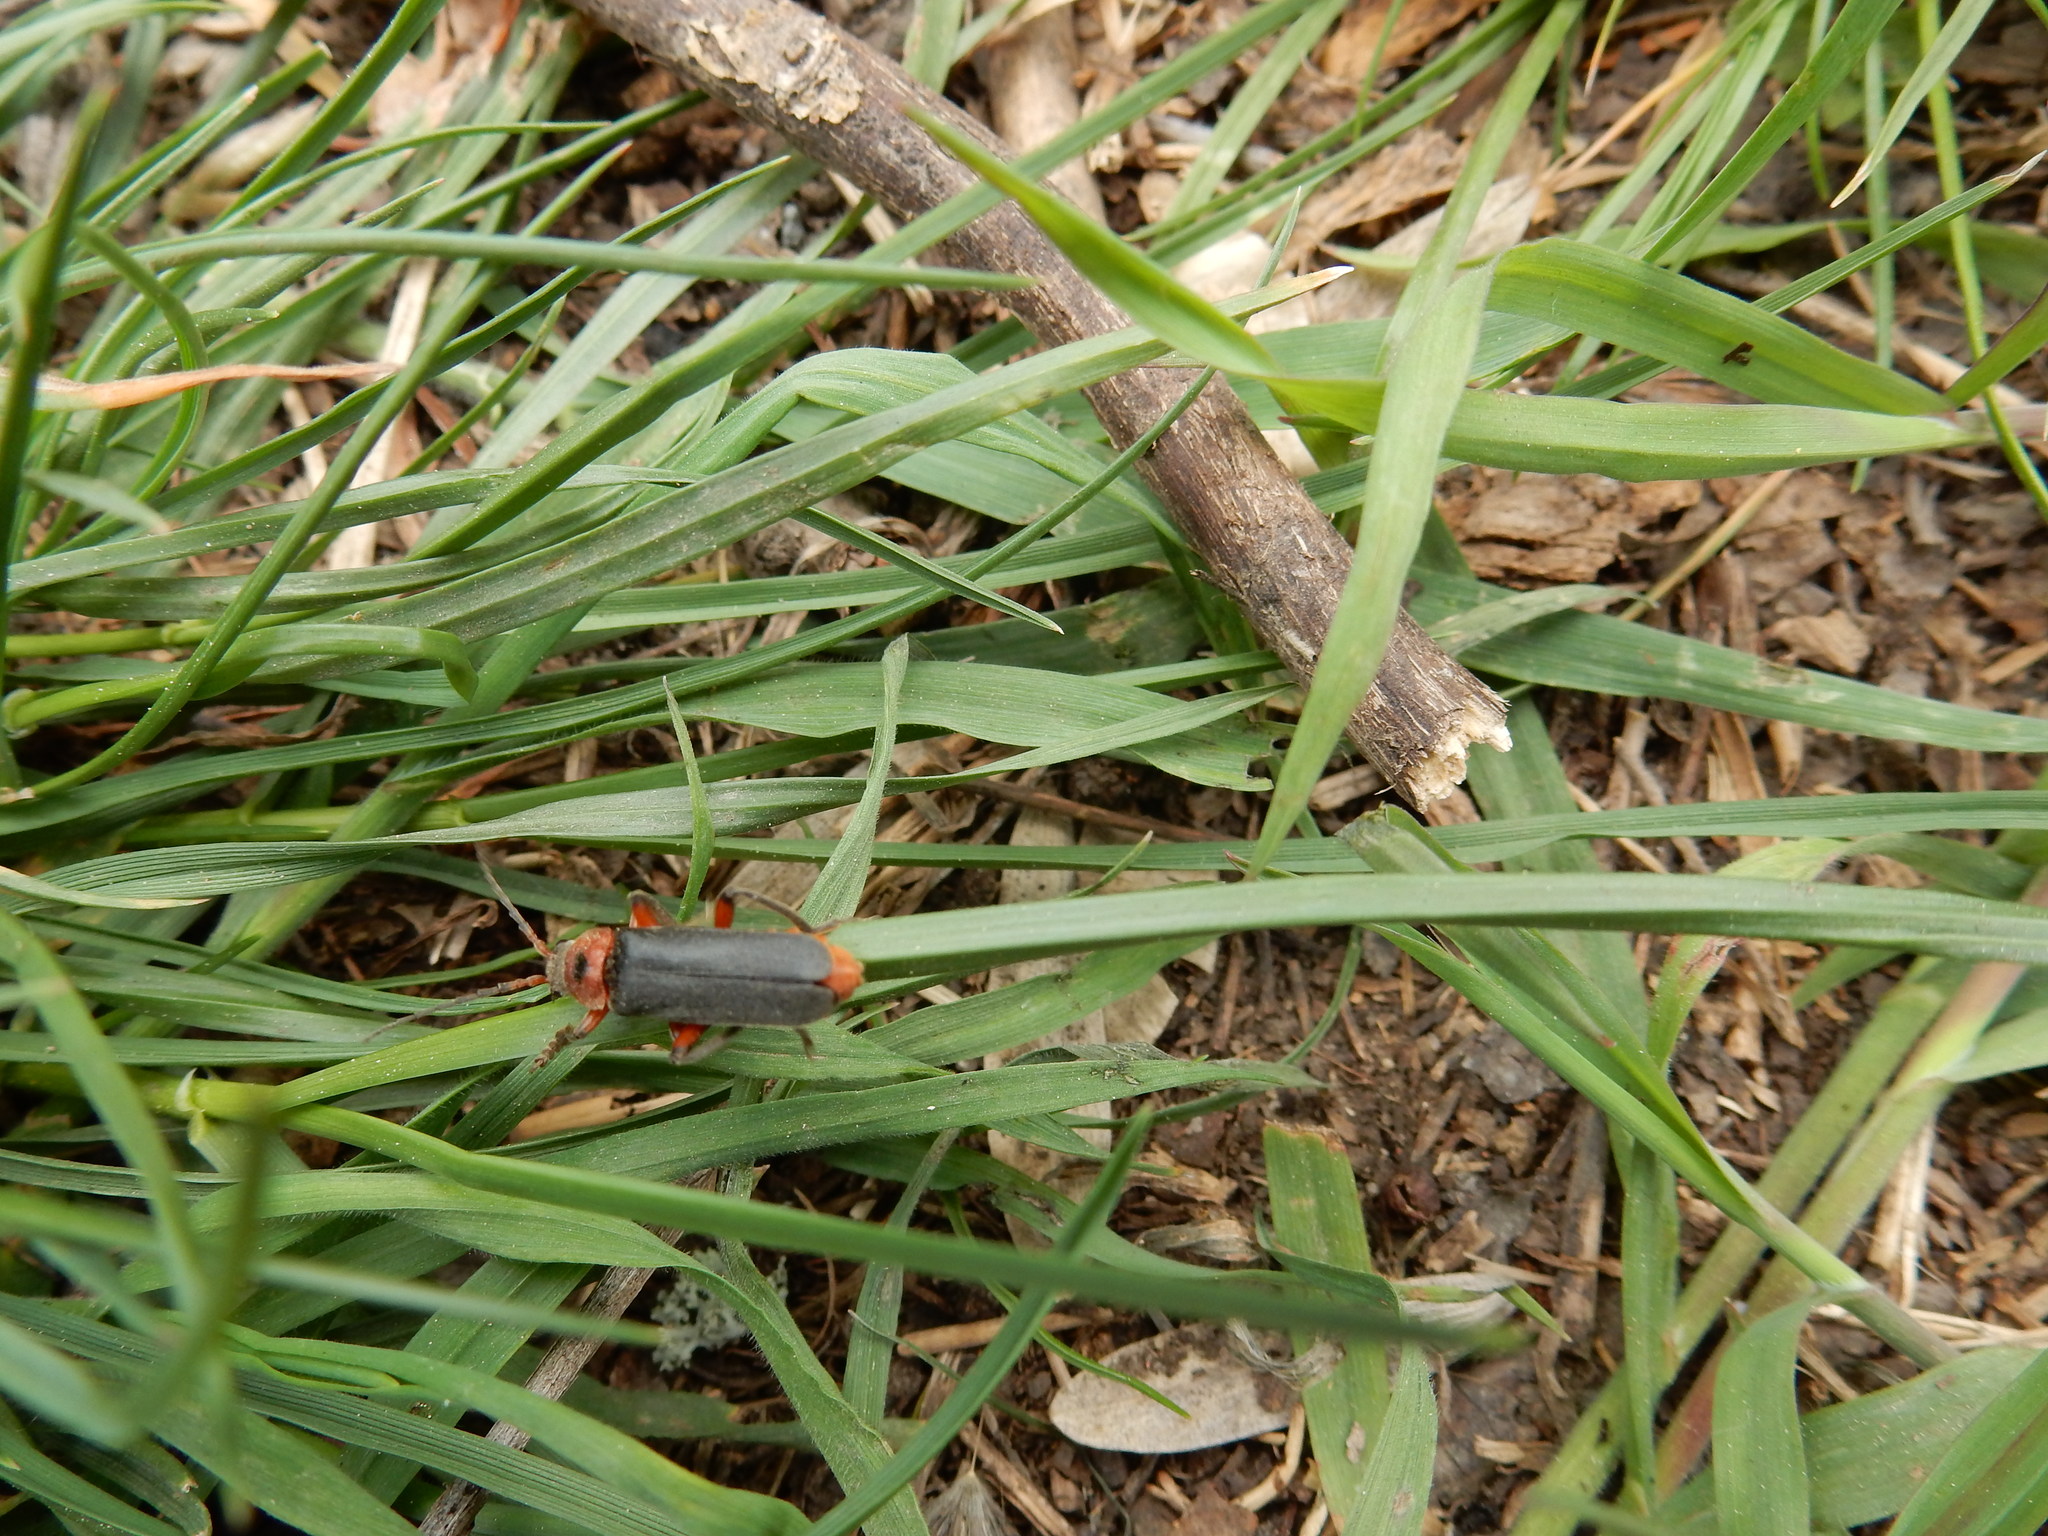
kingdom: Animalia
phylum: Arthropoda
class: Insecta
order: Coleoptera
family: Cantharidae
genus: Cantharis
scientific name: Cantharis rustica
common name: Soldier beetle
